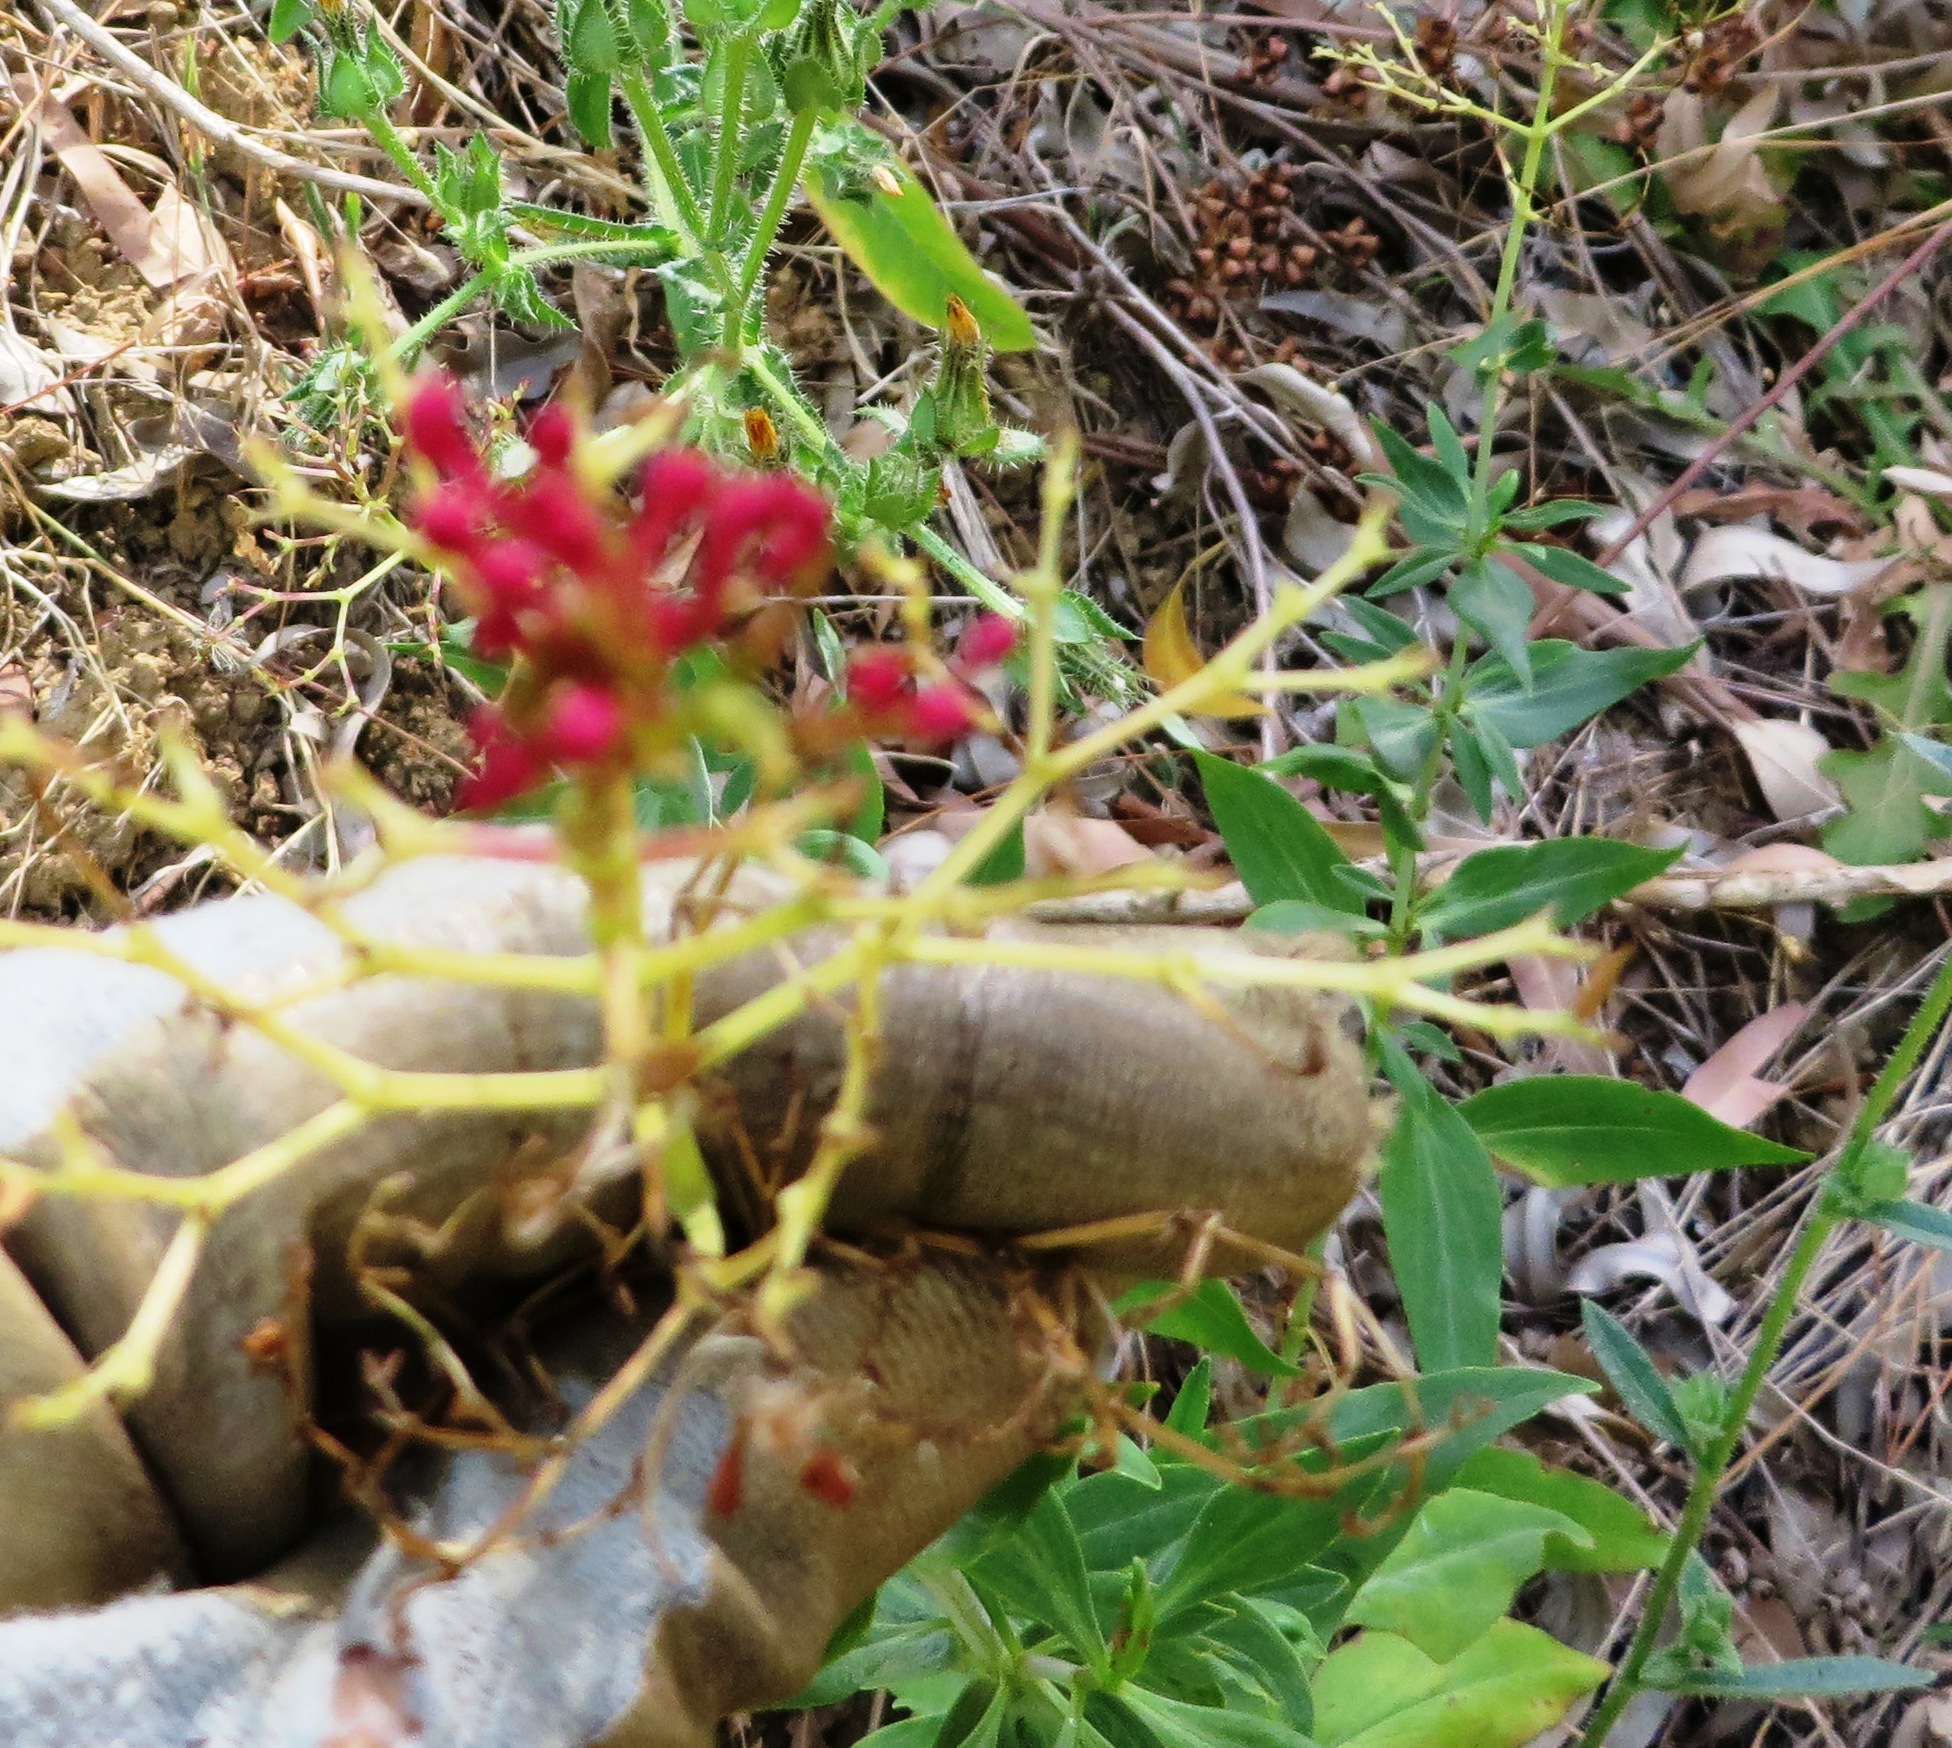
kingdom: Plantae
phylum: Tracheophyta
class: Magnoliopsida
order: Dipsacales
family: Caprifoliaceae
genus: Centranthus
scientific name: Centranthus ruber
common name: Red valerian
